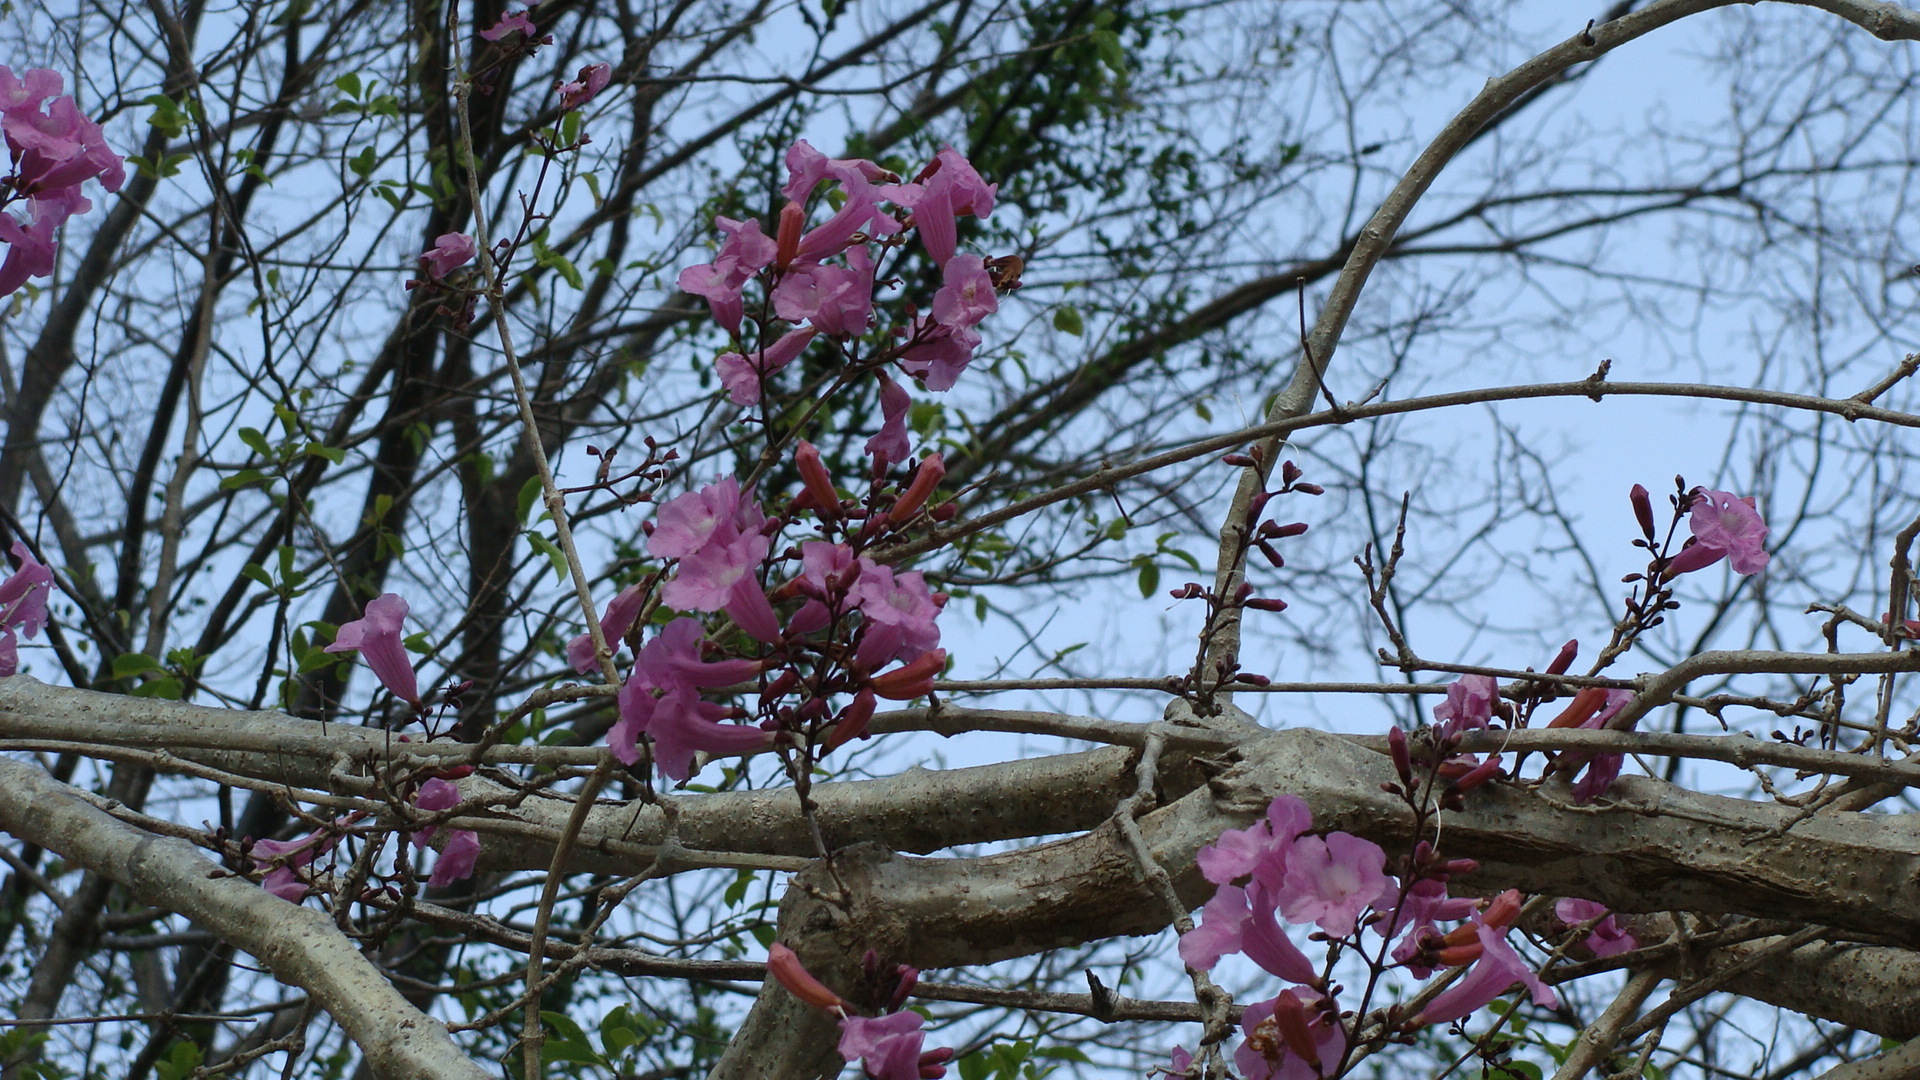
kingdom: Plantae
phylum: Tracheophyta
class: Magnoliopsida
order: Lamiales
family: Bignoniaceae
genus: Fridericia
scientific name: Fridericia chica
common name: Cricketvine
